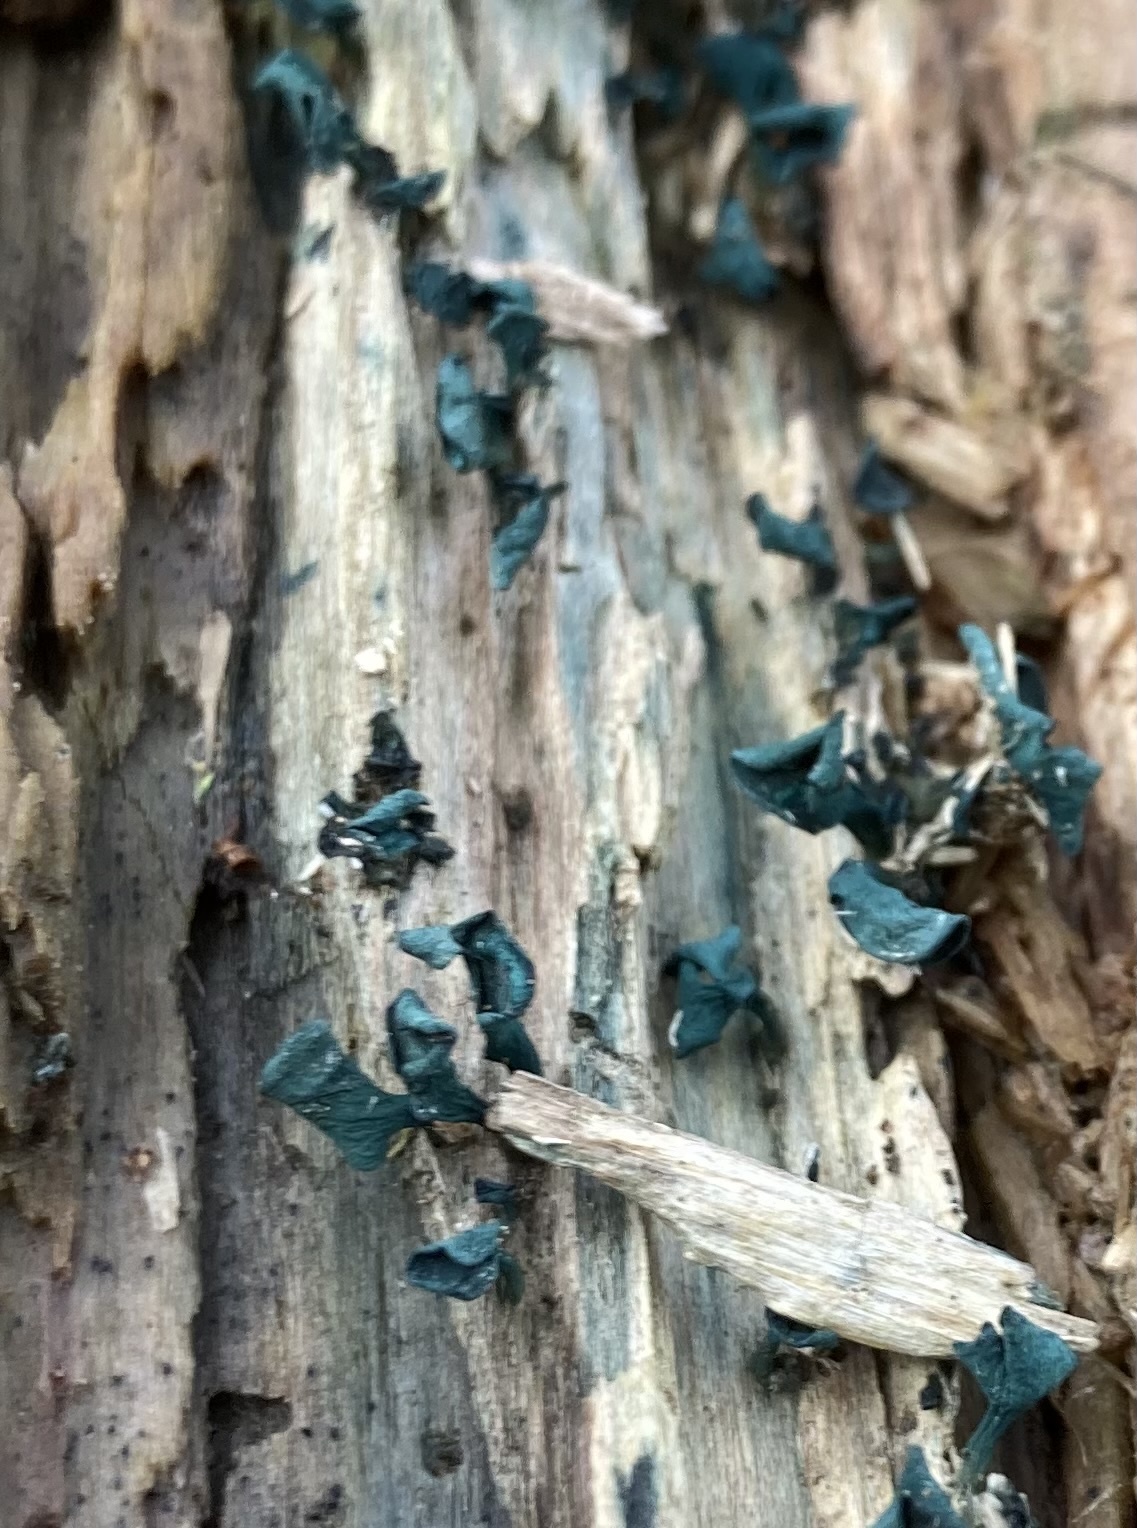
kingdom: Fungi
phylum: Ascomycota
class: Leotiomycetes
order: Helotiales
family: Chlorociboriaceae
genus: Chlorociboria
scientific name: Chlorociboria aeruginascens
